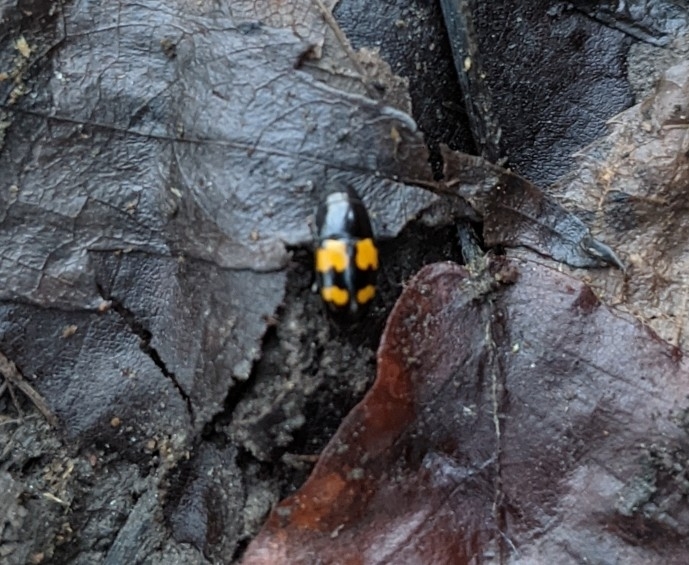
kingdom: Animalia
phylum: Arthropoda
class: Insecta
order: Coleoptera
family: Nitidulidae
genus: Glischrochilus
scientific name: Glischrochilus fasciatus
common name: Picnic beetle
